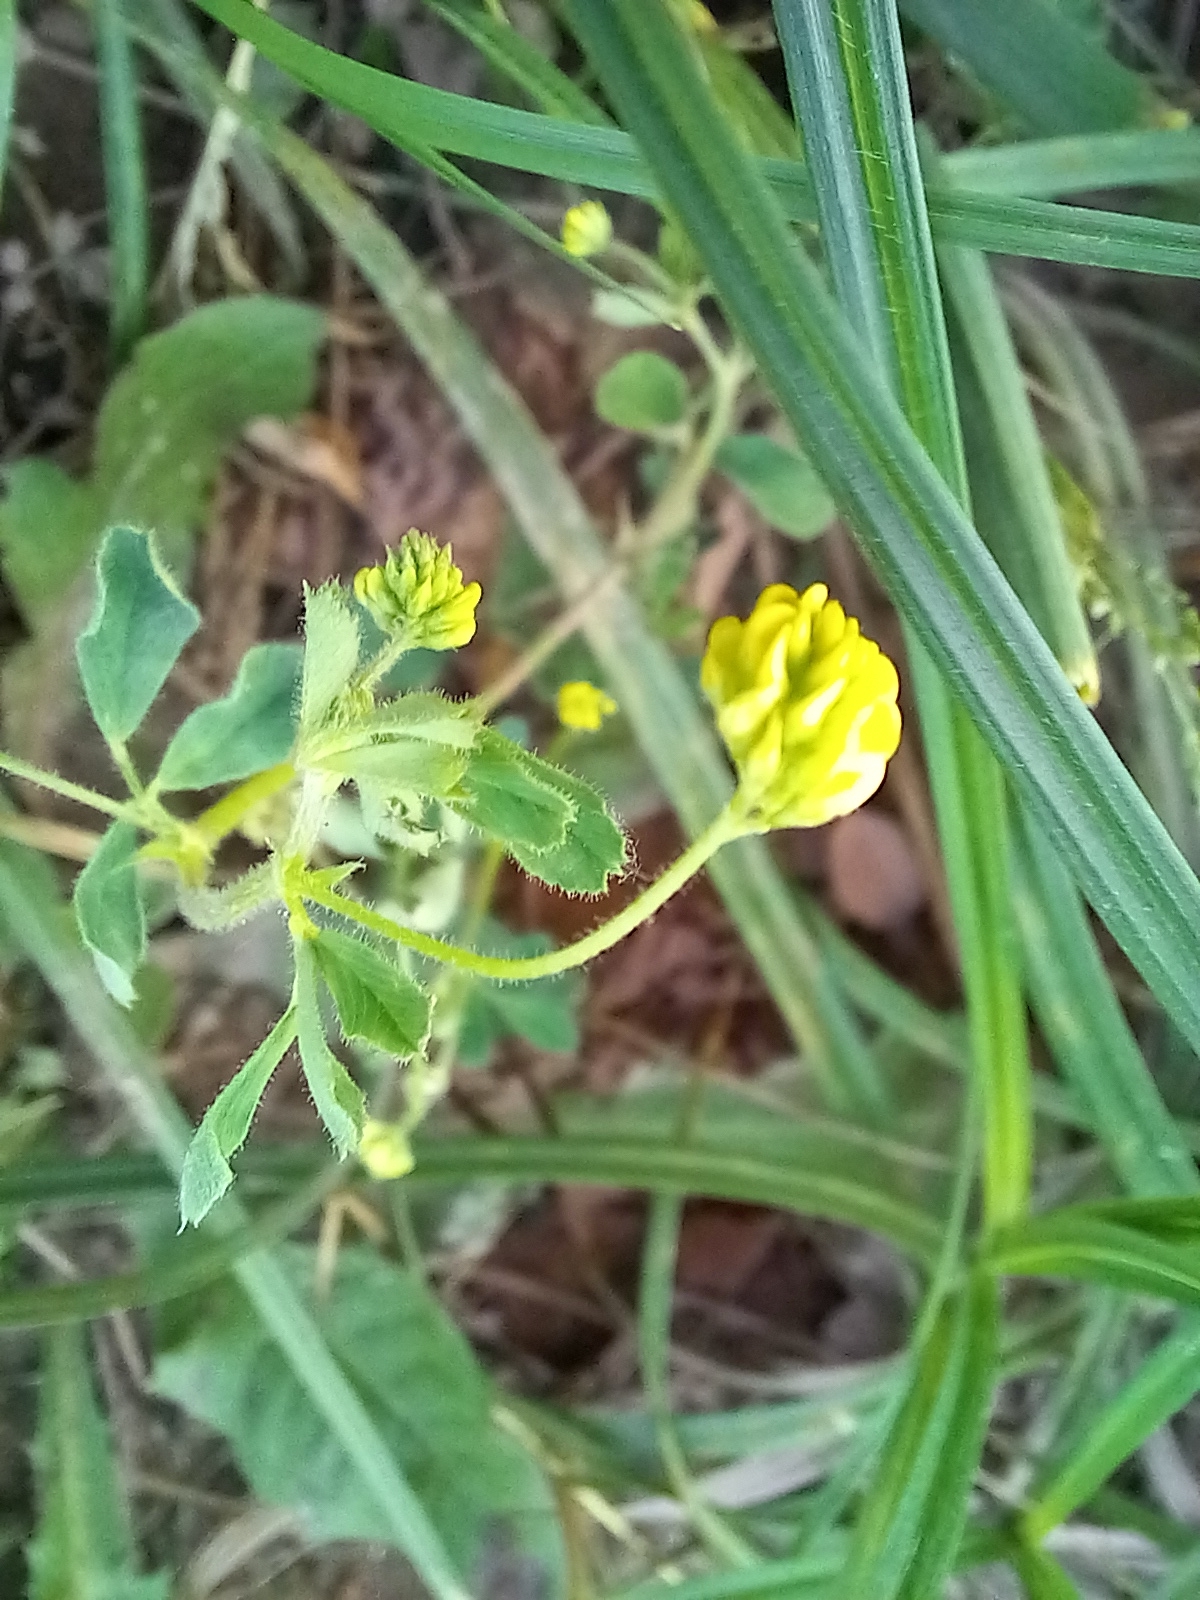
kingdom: Plantae
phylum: Tracheophyta
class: Magnoliopsida
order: Fabales
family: Fabaceae
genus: Medicago
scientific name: Medicago lupulina
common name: Black medick
